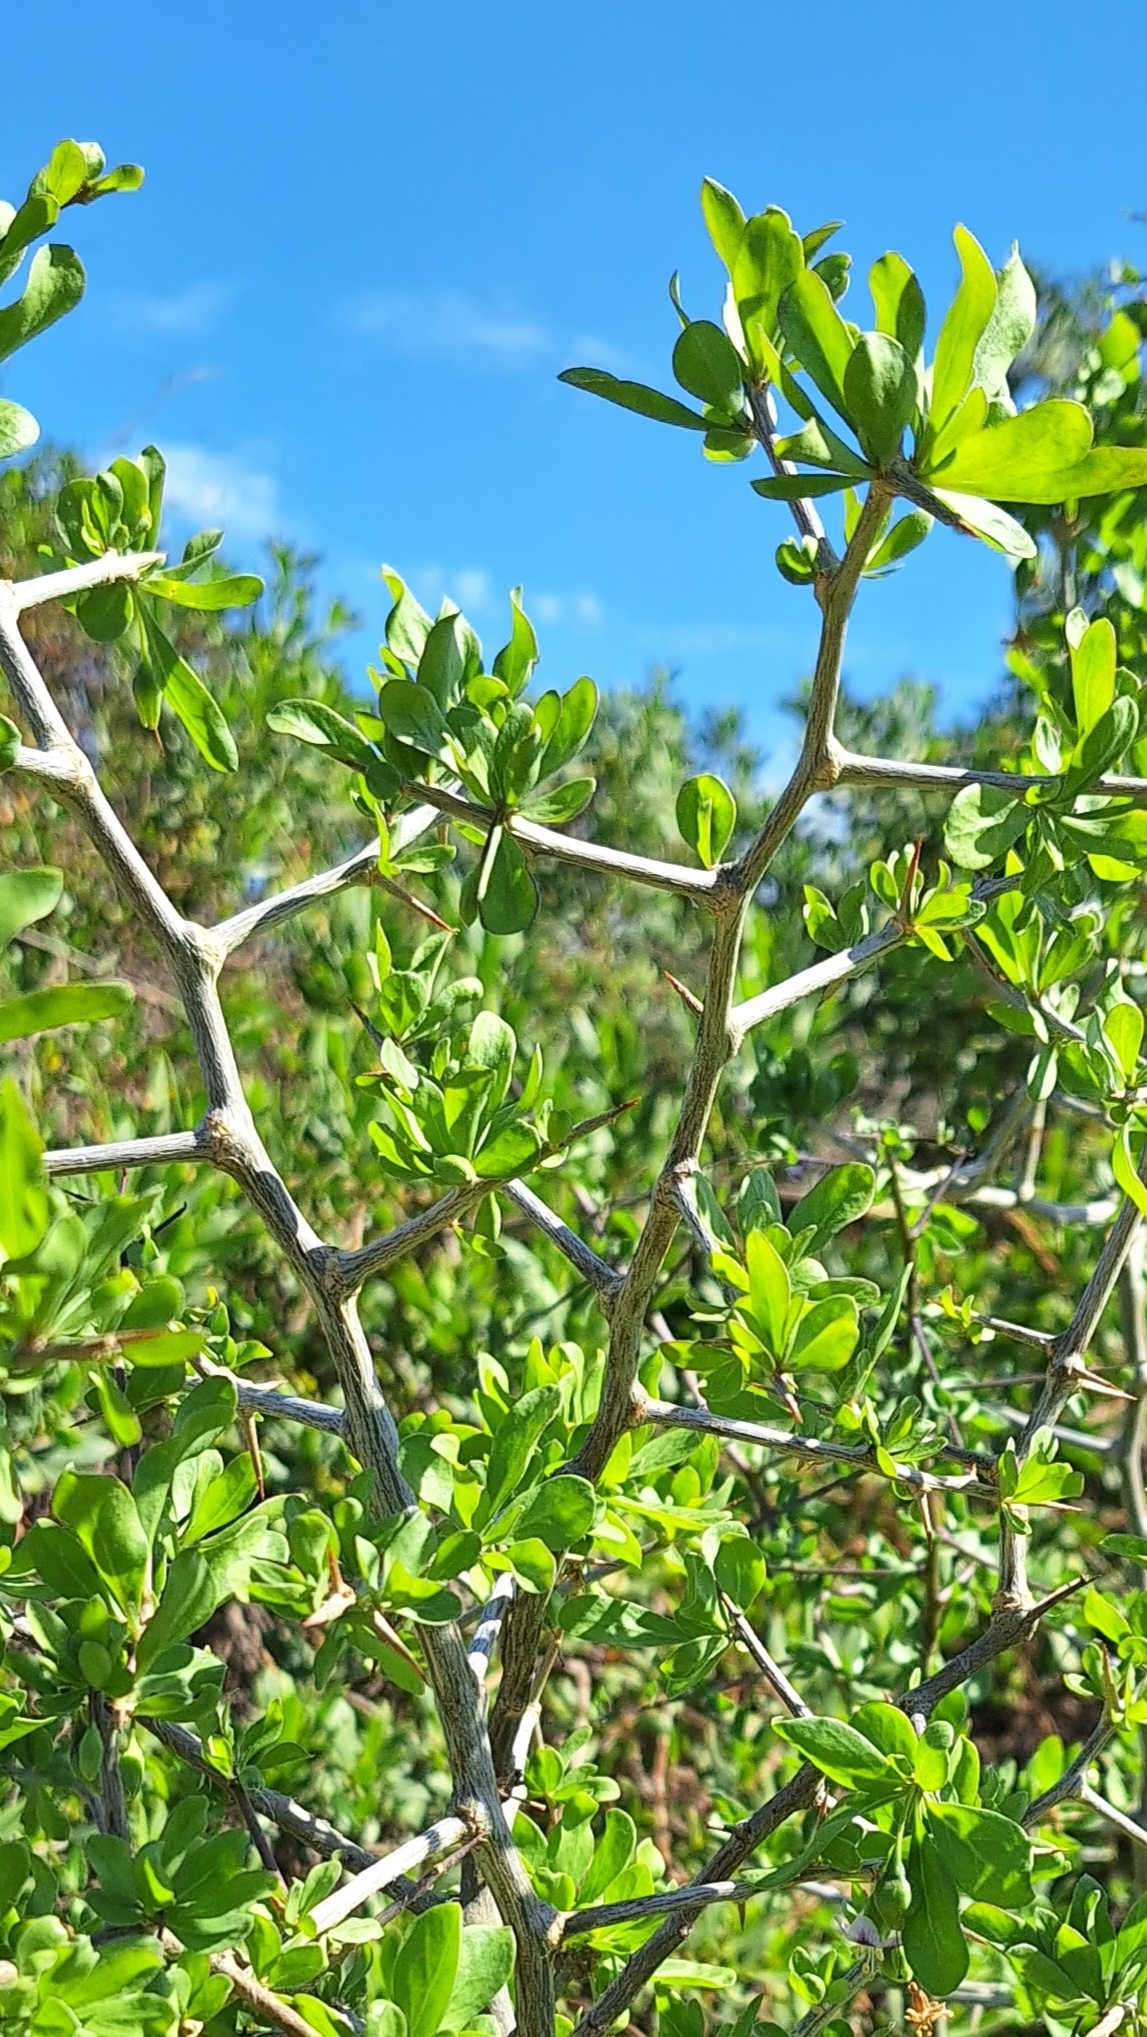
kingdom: Plantae
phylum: Tracheophyta
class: Magnoliopsida
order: Solanales
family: Solanaceae
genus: Lycium
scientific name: Lycium ferocissimum
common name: African boxthorn
